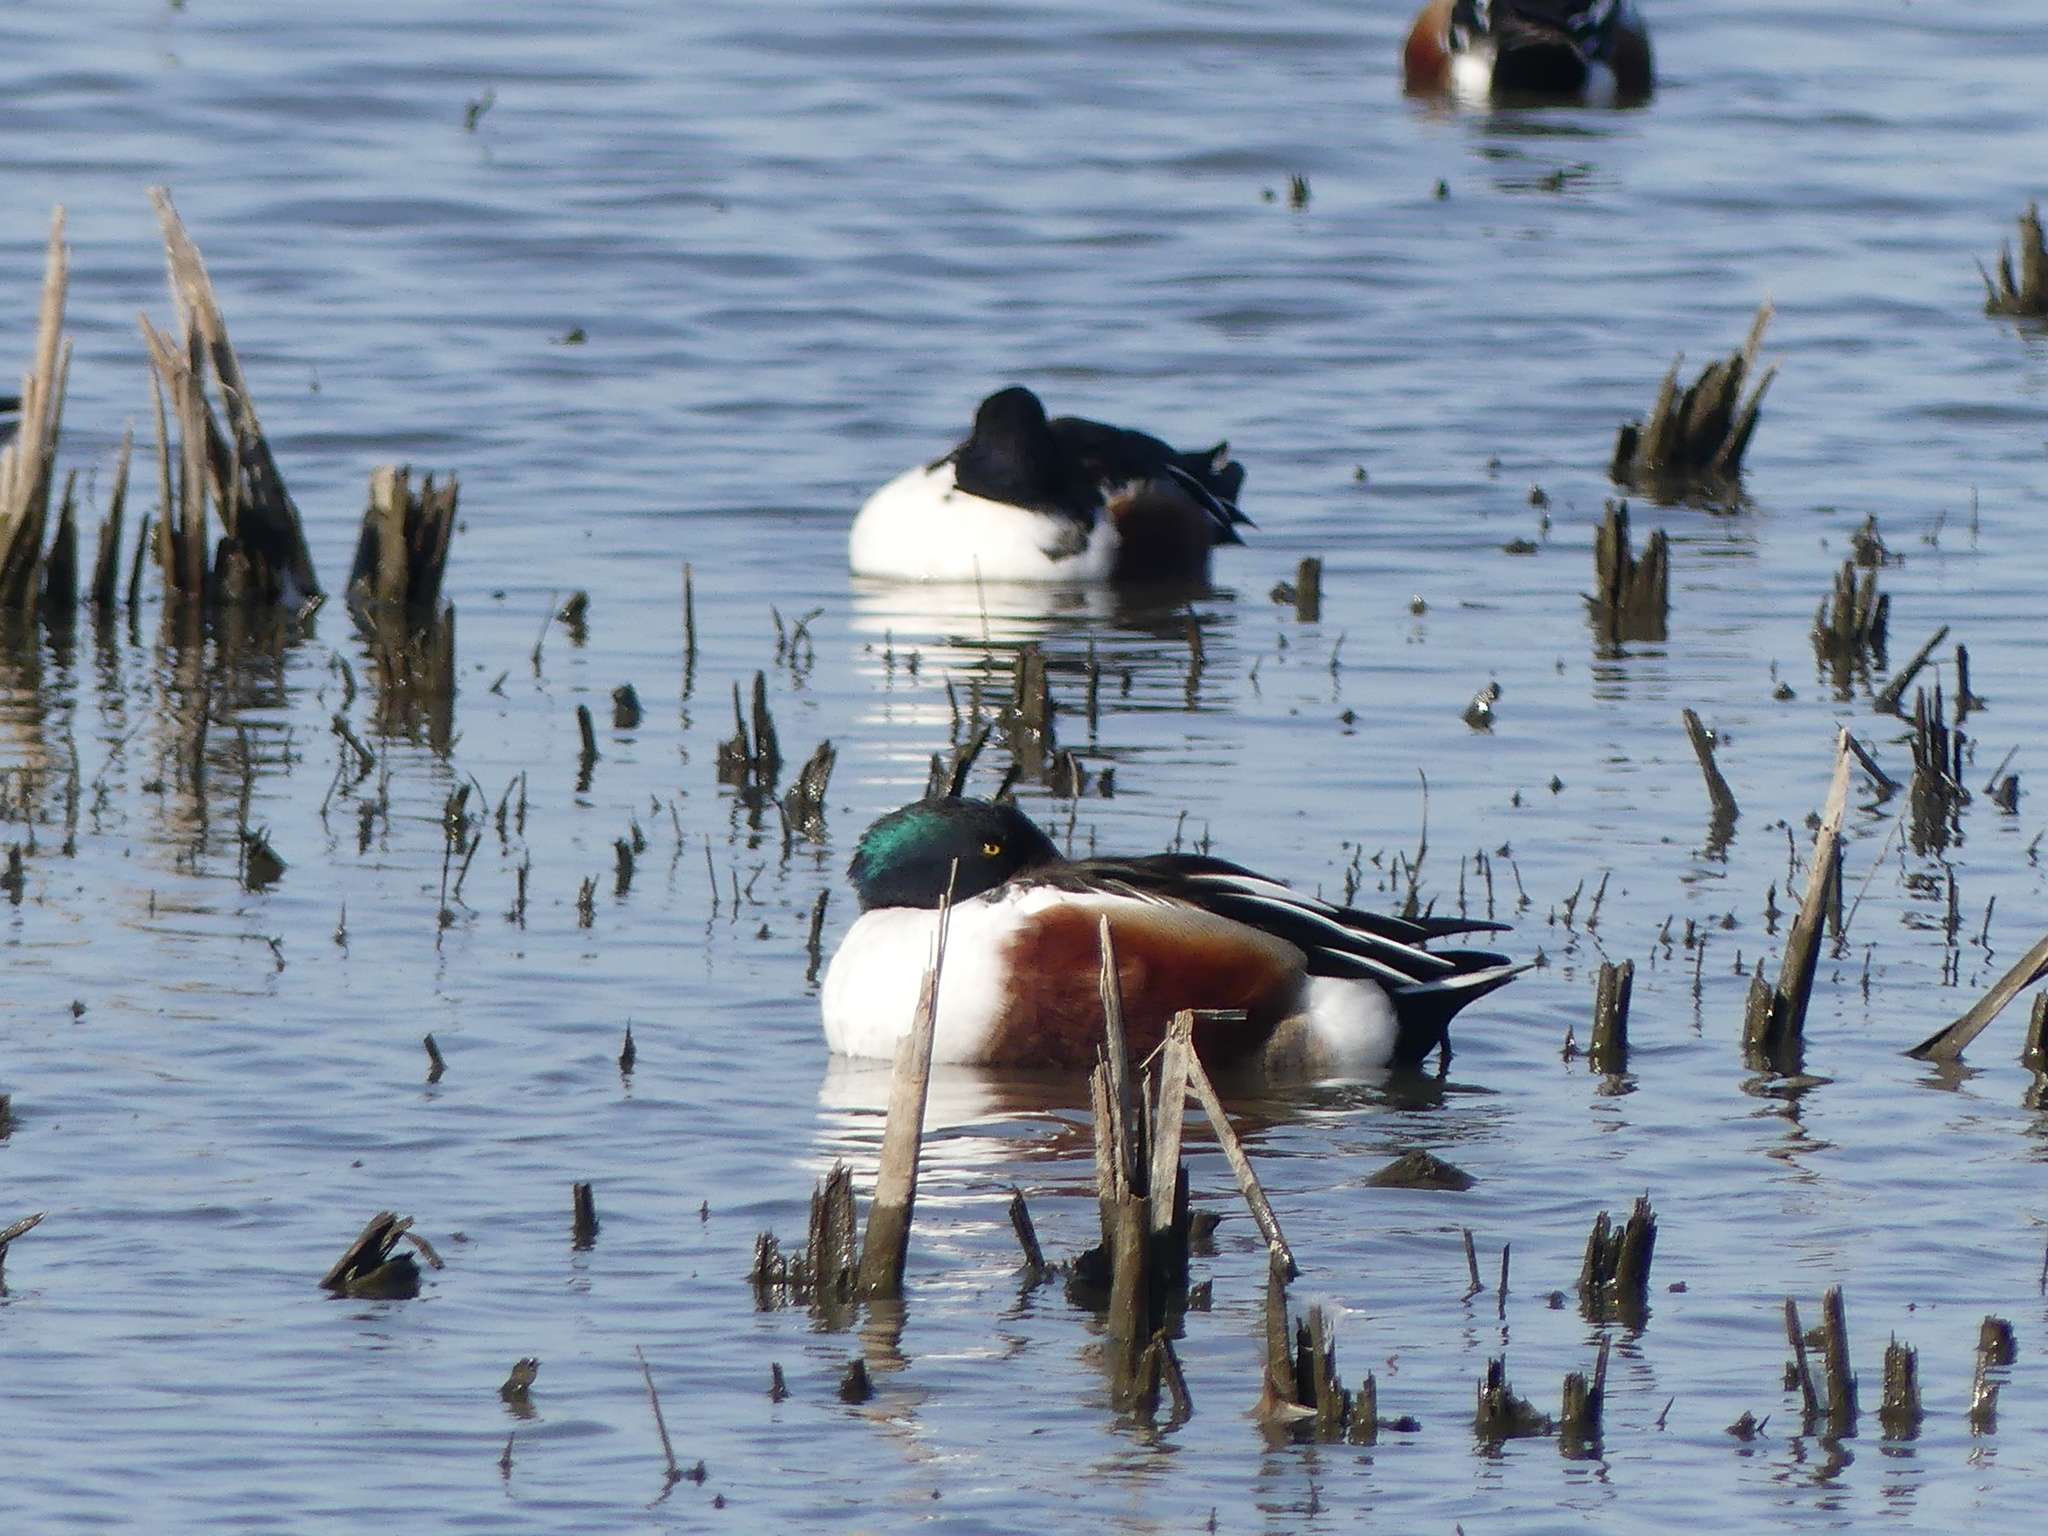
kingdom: Animalia
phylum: Chordata
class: Aves
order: Anseriformes
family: Anatidae
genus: Spatula
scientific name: Spatula clypeata
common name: Northern shoveler
